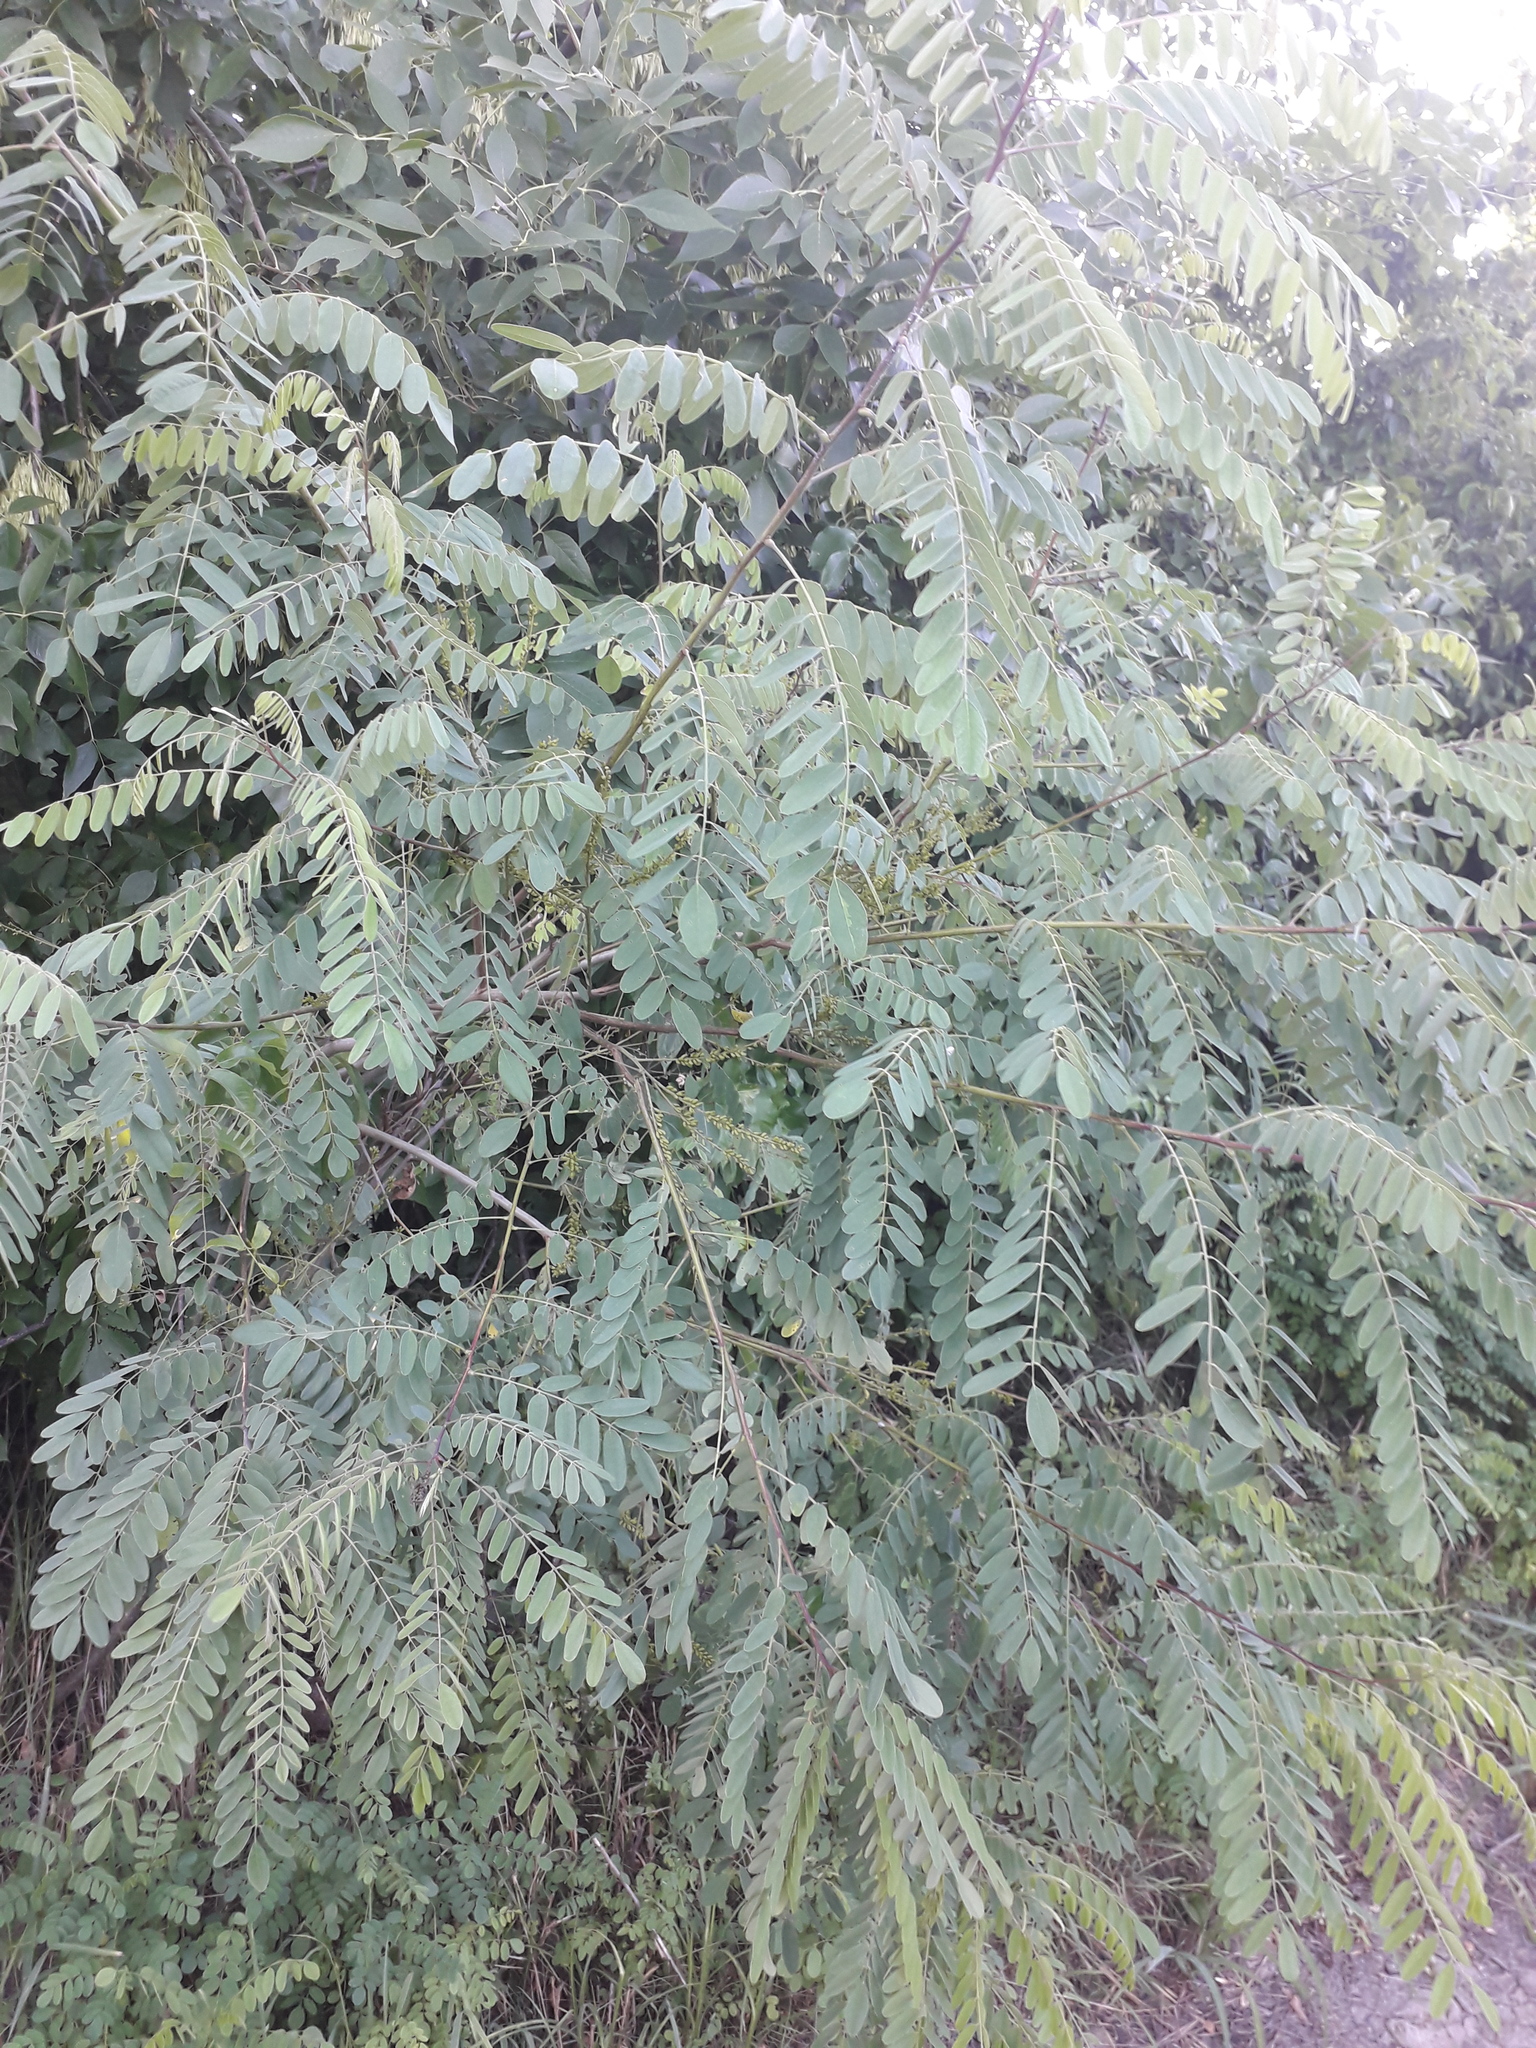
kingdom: Plantae
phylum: Tracheophyta
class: Magnoliopsida
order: Fabales
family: Fabaceae
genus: Robinia
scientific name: Robinia pseudoacacia
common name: Black locust
